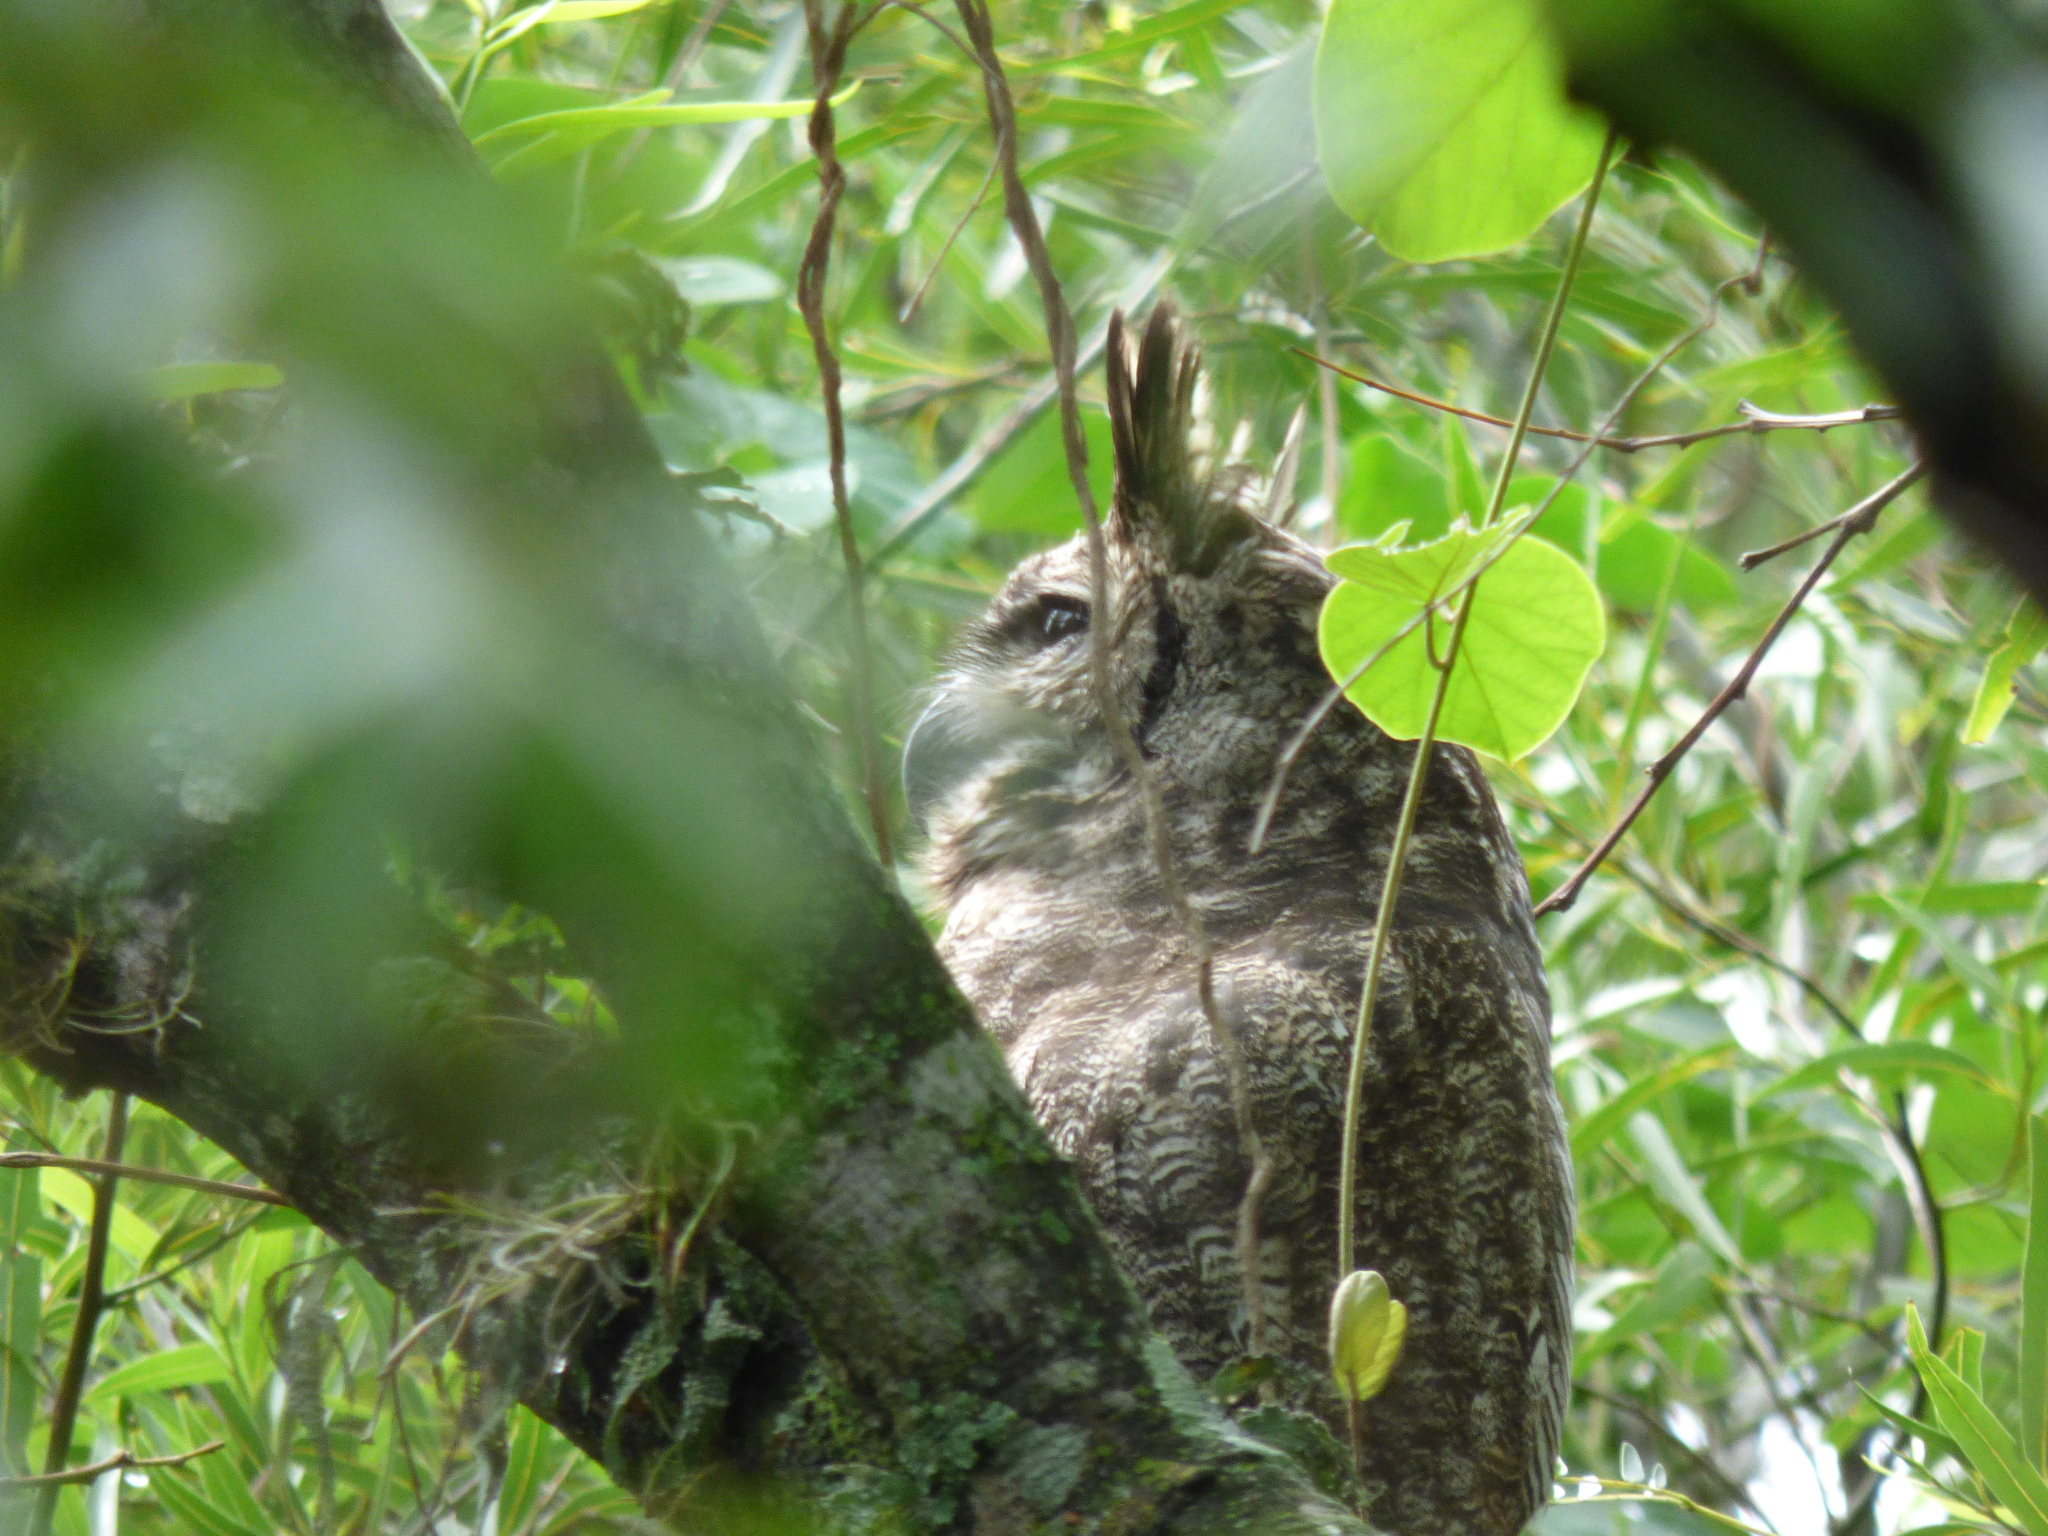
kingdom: Animalia
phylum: Chordata
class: Aves
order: Strigiformes
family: Strigidae
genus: Bubo
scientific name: Bubo virginianus
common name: Great horned owl
